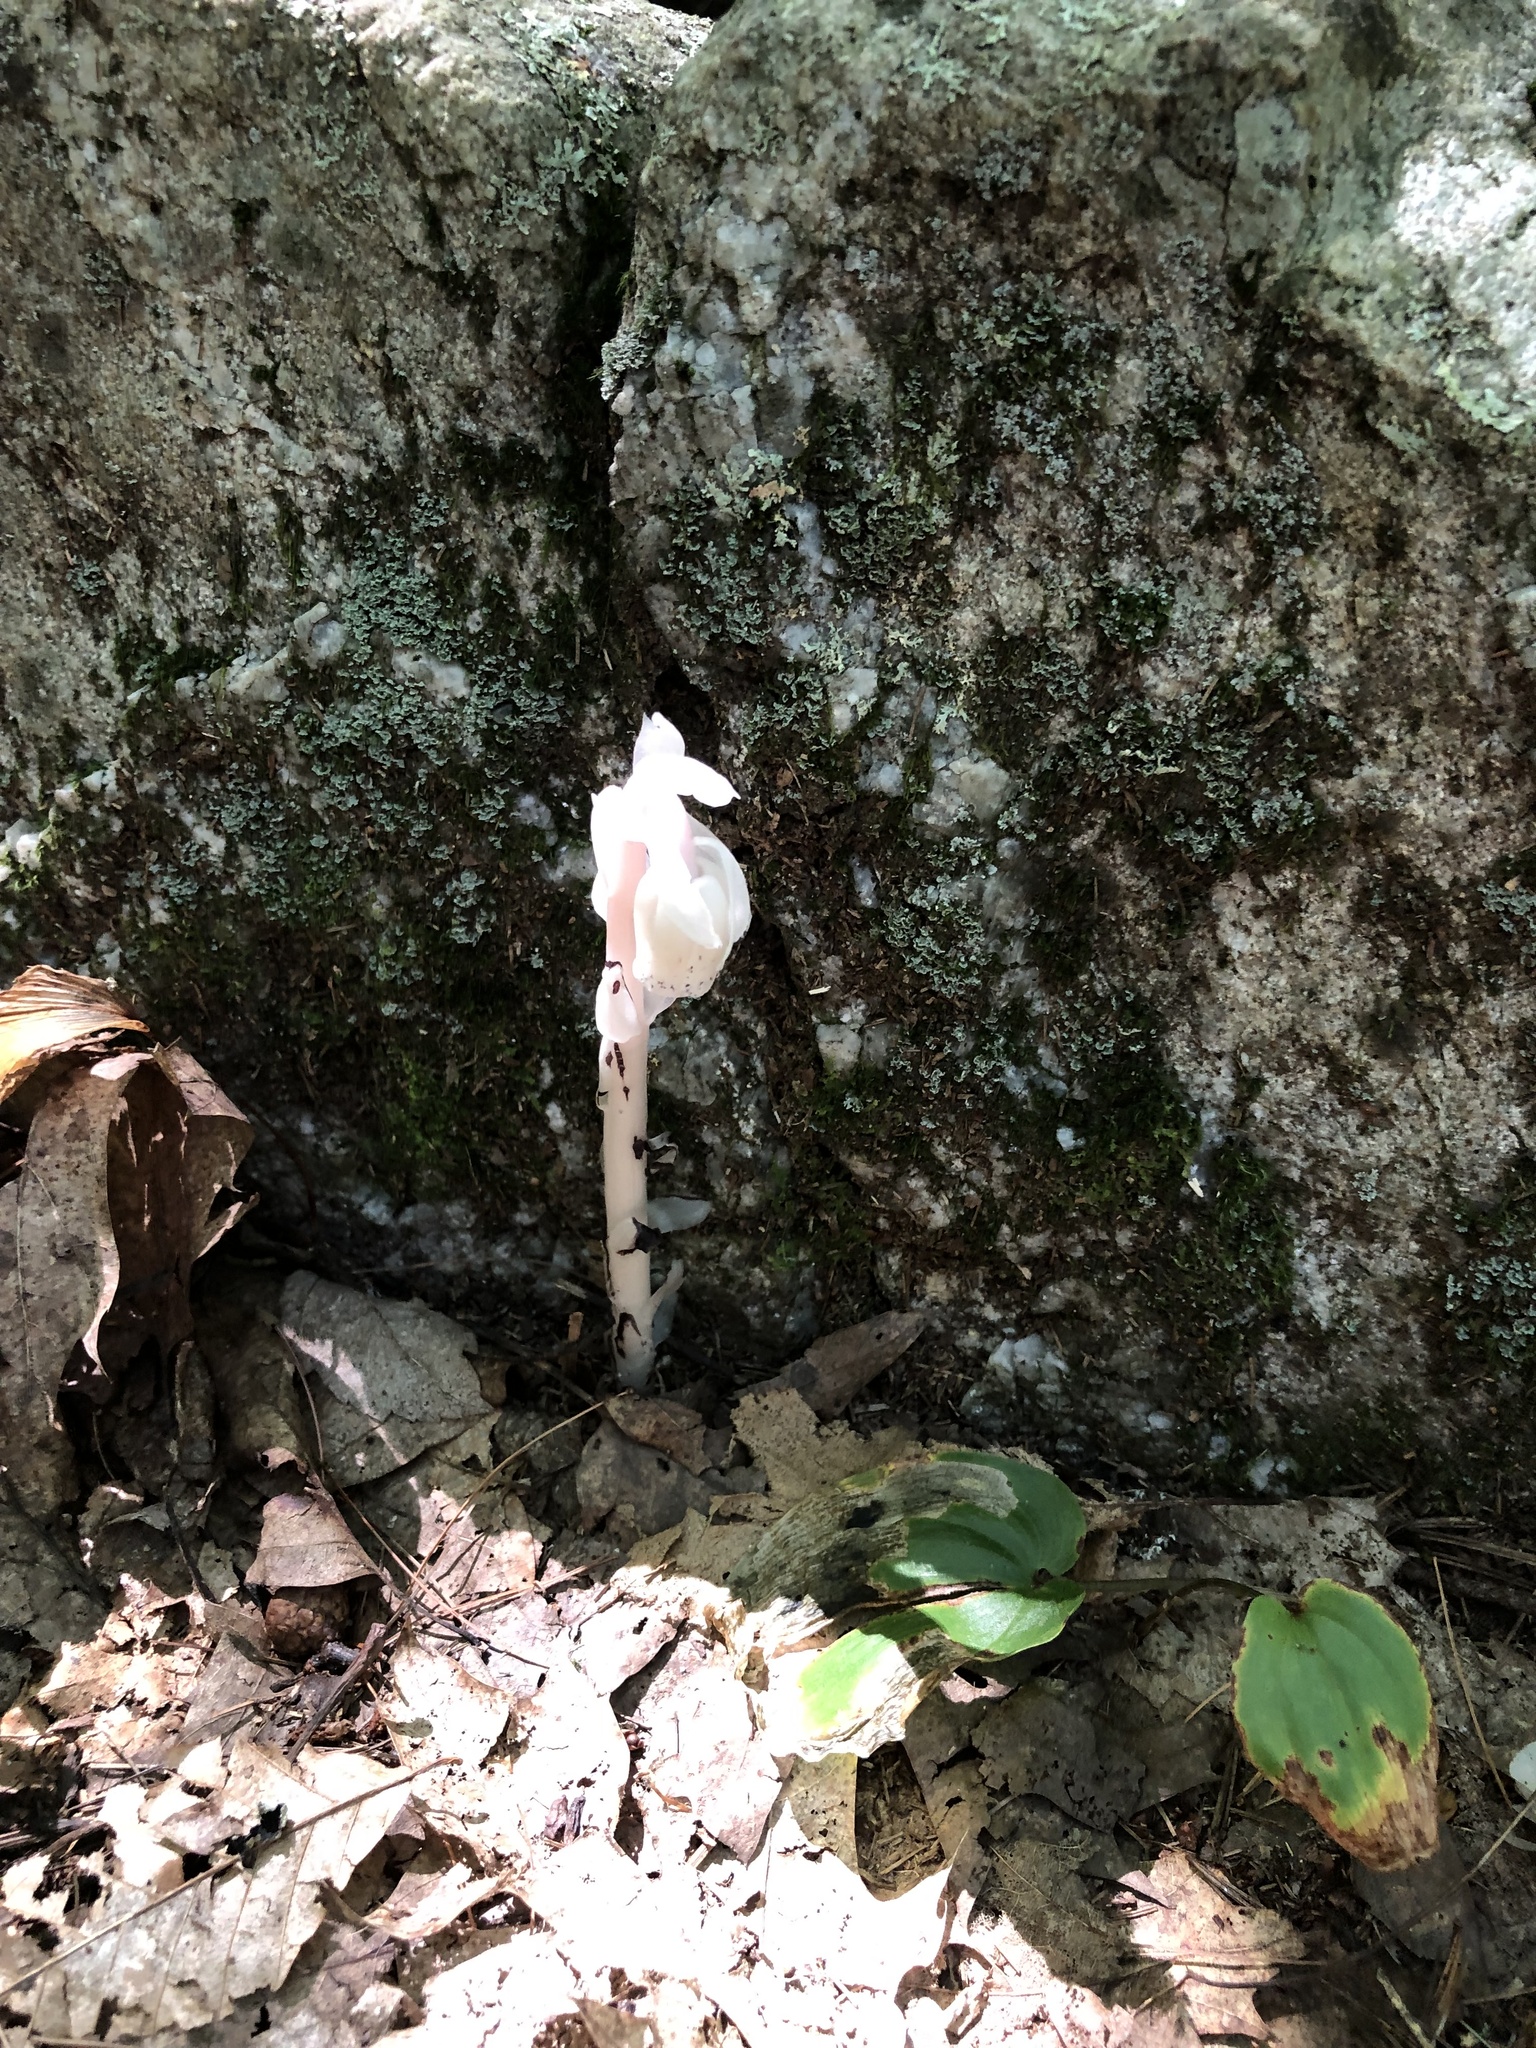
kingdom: Plantae
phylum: Tracheophyta
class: Magnoliopsida
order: Ericales
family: Ericaceae
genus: Monotropa
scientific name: Monotropa uniflora
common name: Convulsion root
